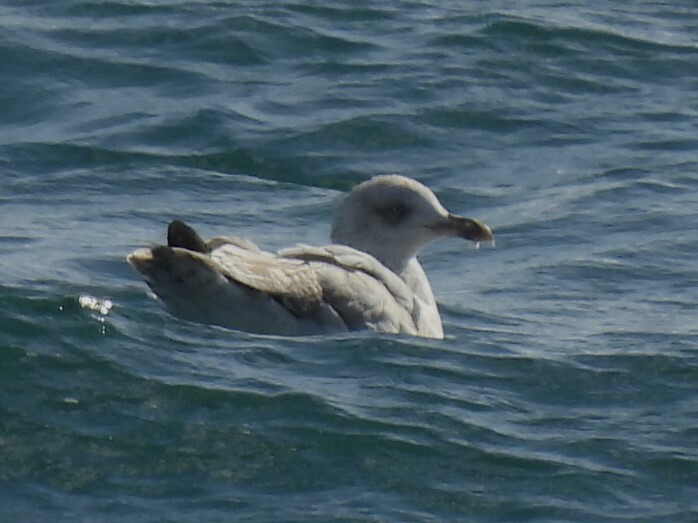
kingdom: Animalia
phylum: Chordata
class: Aves
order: Charadriiformes
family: Laridae
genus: Larus
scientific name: Larus argentatus
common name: Herring gull
